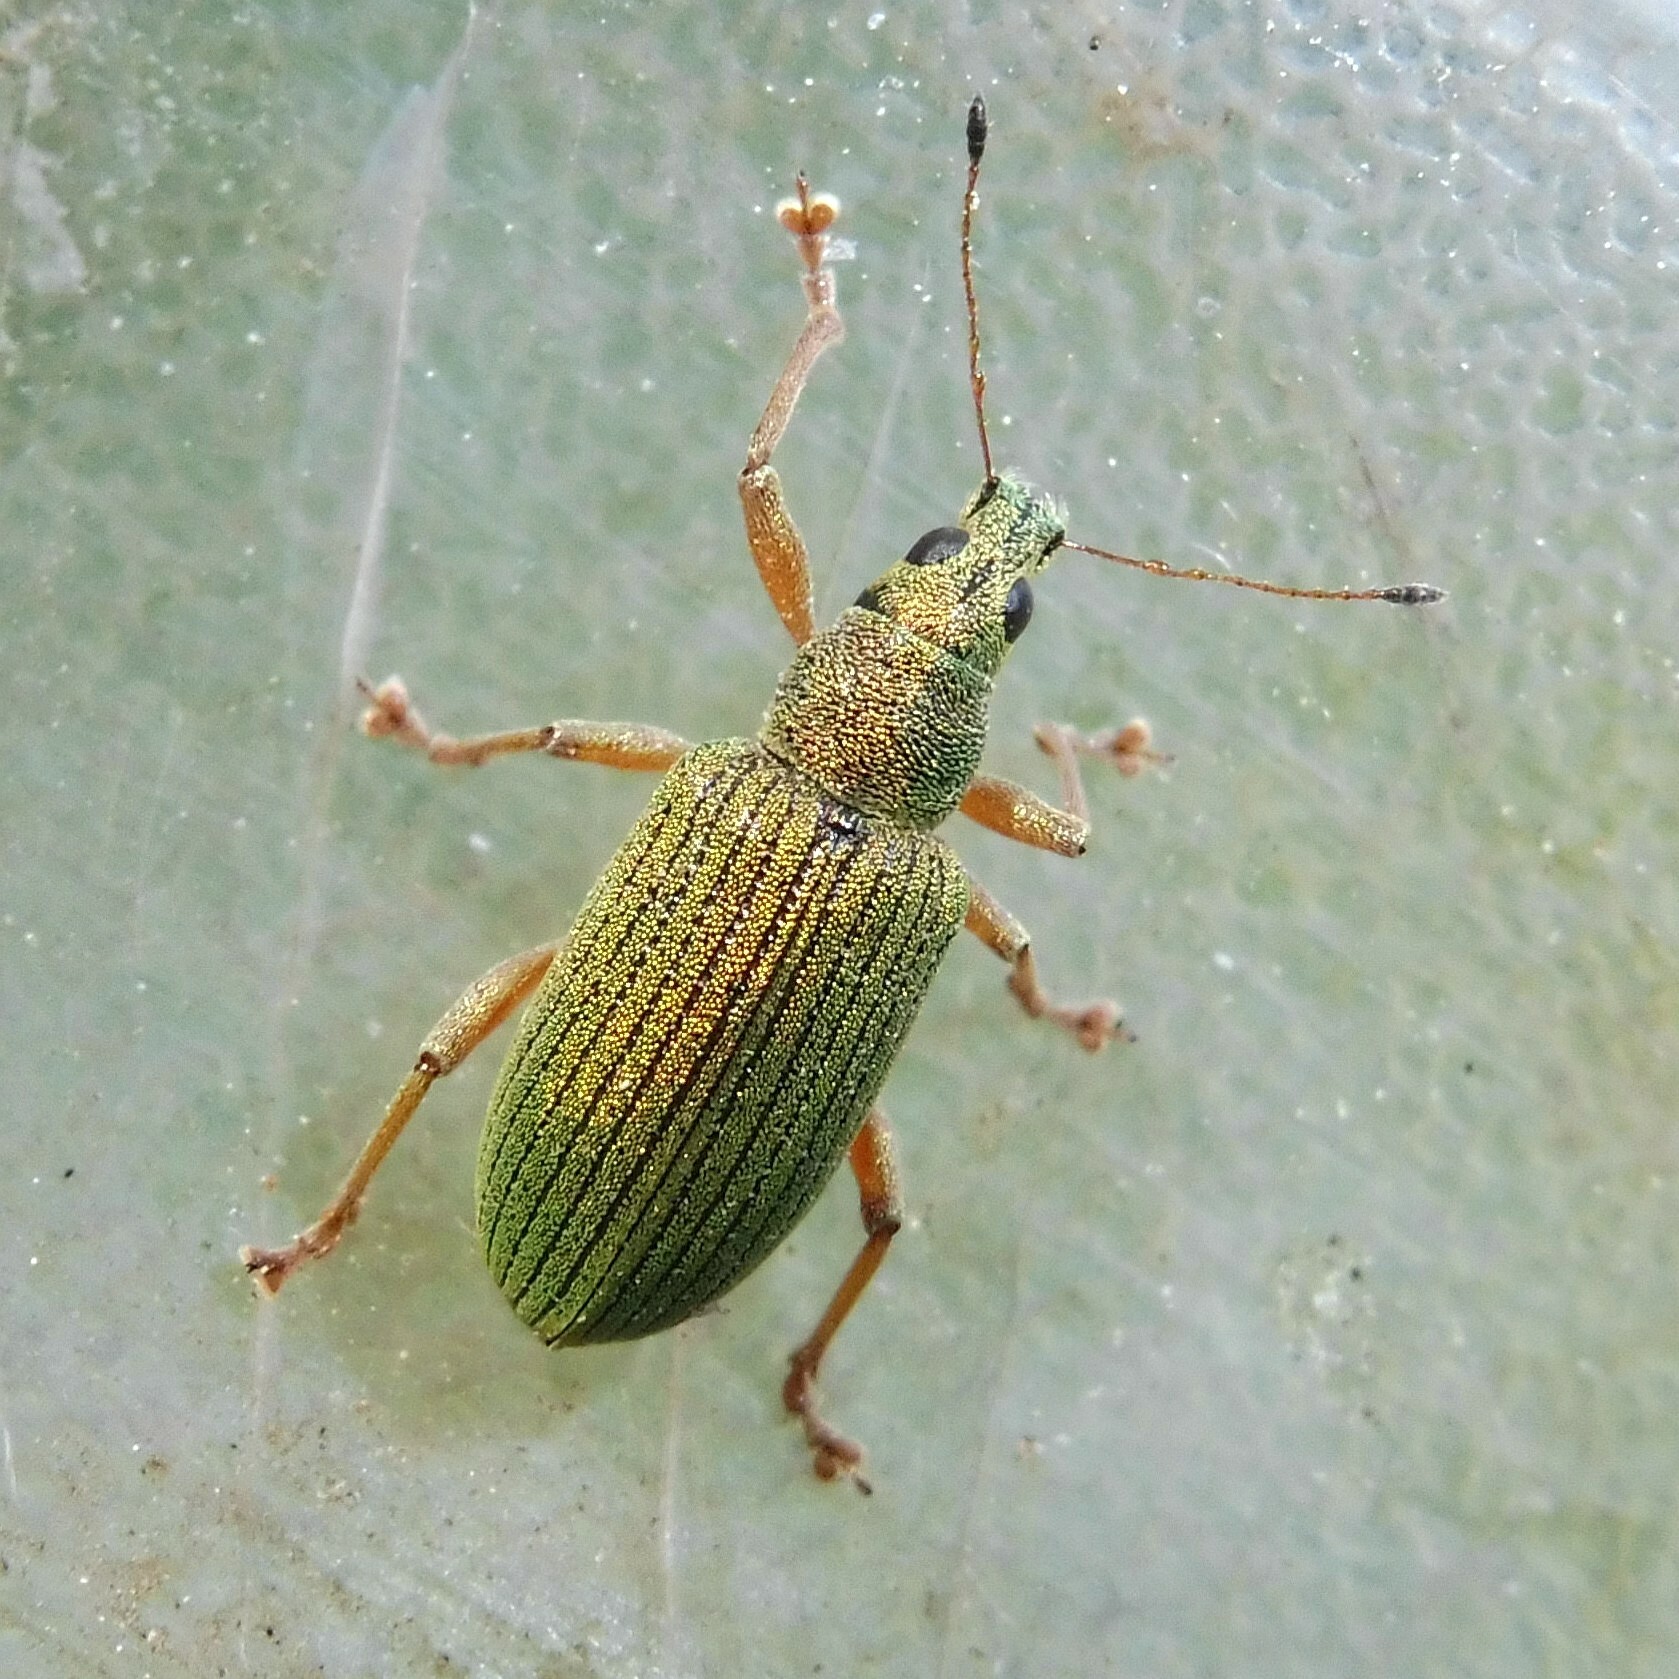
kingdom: Animalia
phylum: Arthropoda
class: Insecta
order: Coleoptera
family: Curculionidae
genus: Polydrusus
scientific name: Polydrusus formosus
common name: Weevil
